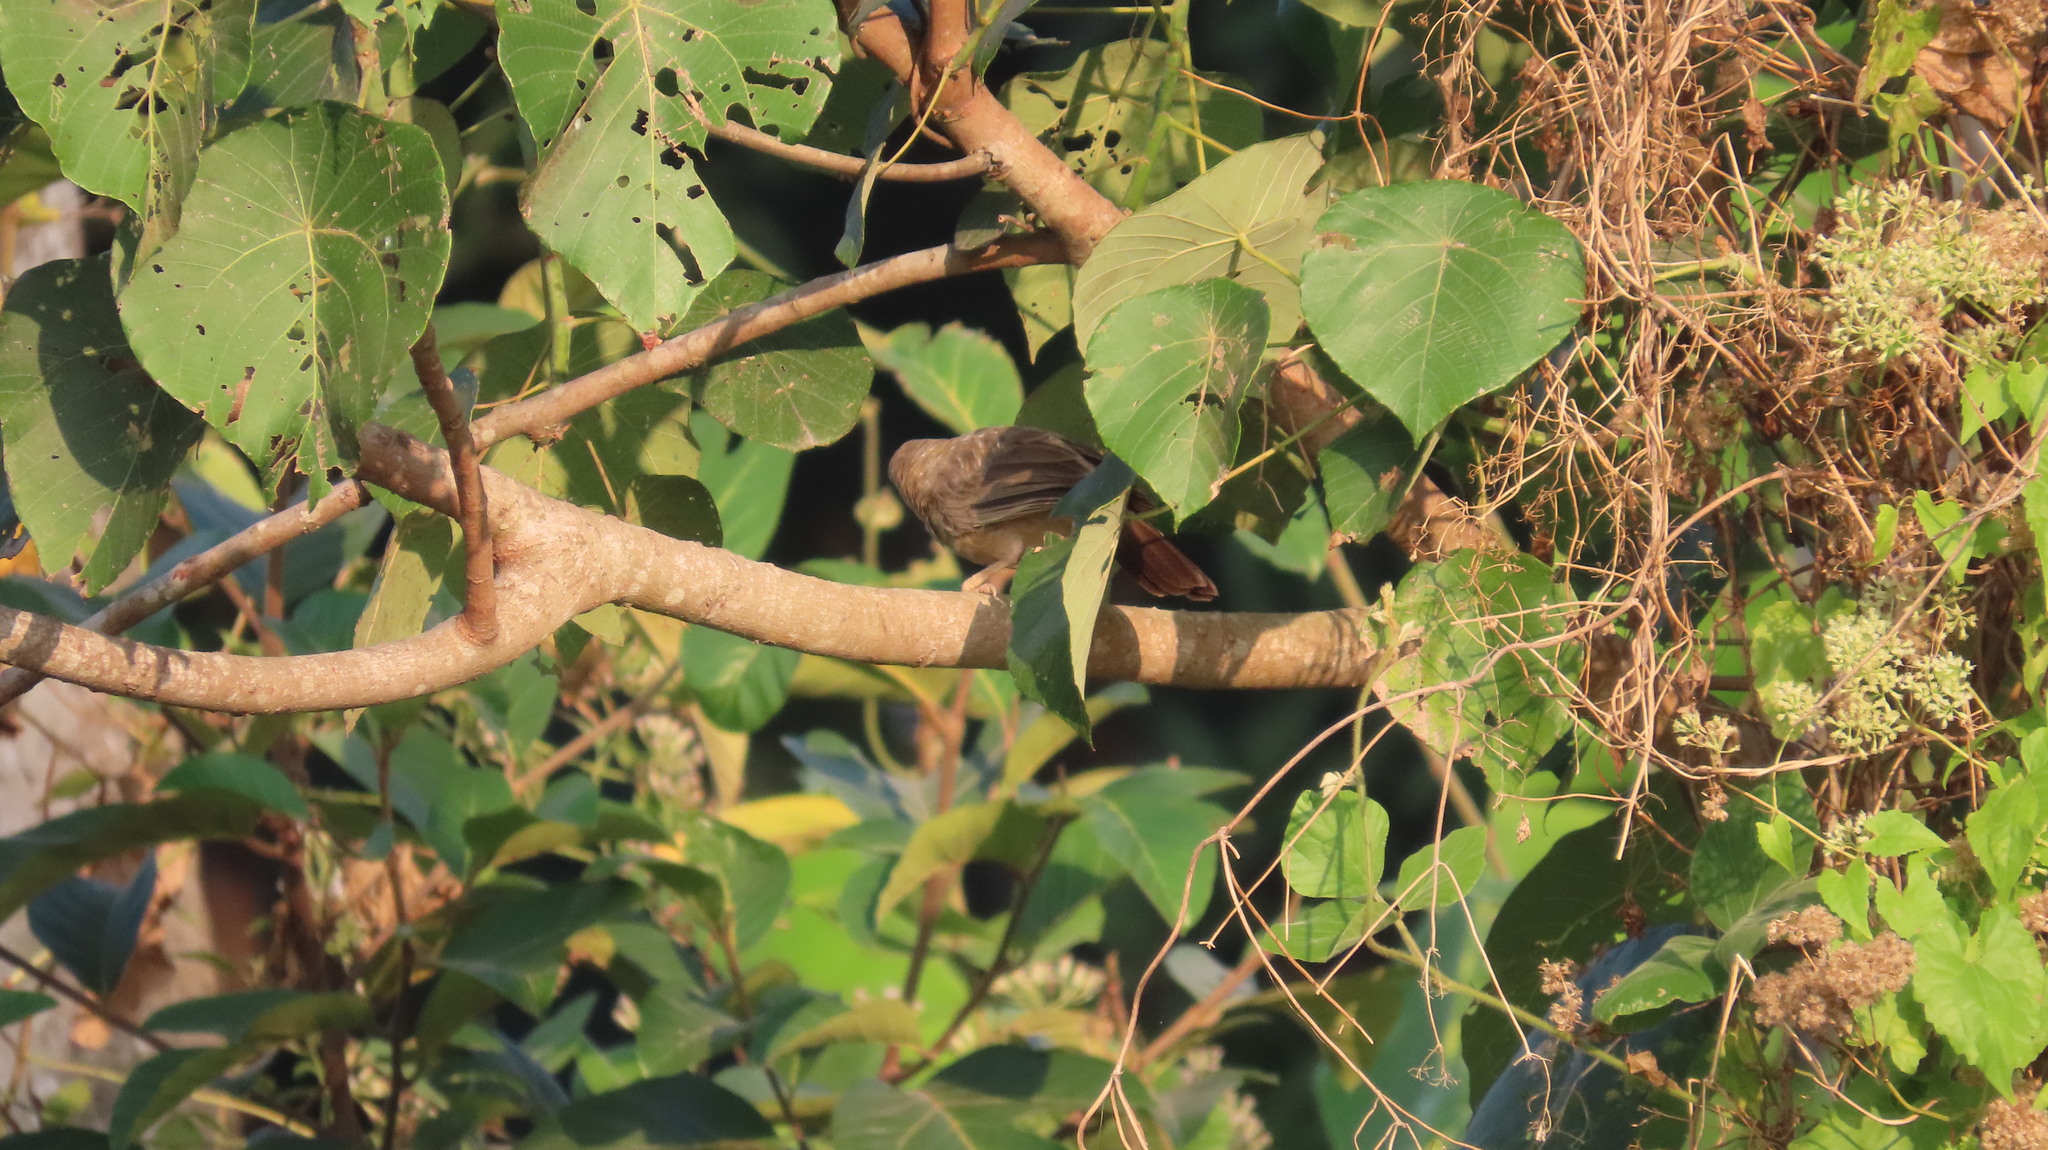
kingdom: Animalia
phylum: Chordata
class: Aves
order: Passeriformes
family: Leiothrichidae
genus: Turdoides
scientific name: Turdoides affinis
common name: Yellow-billed babbler
